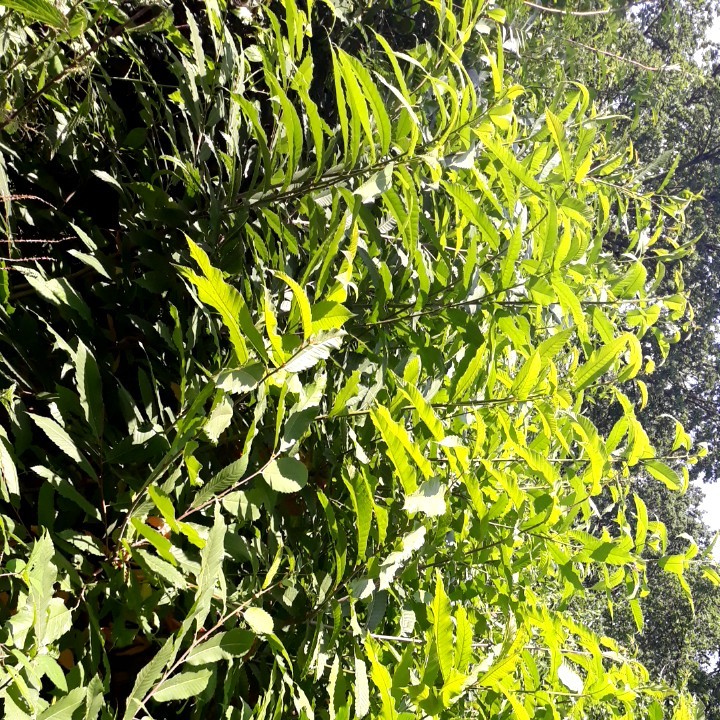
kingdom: Plantae
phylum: Tracheophyta
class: Magnoliopsida
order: Fagales
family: Fagaceae
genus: Castanea
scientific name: Castanea sativa
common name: Sweet chestnut
